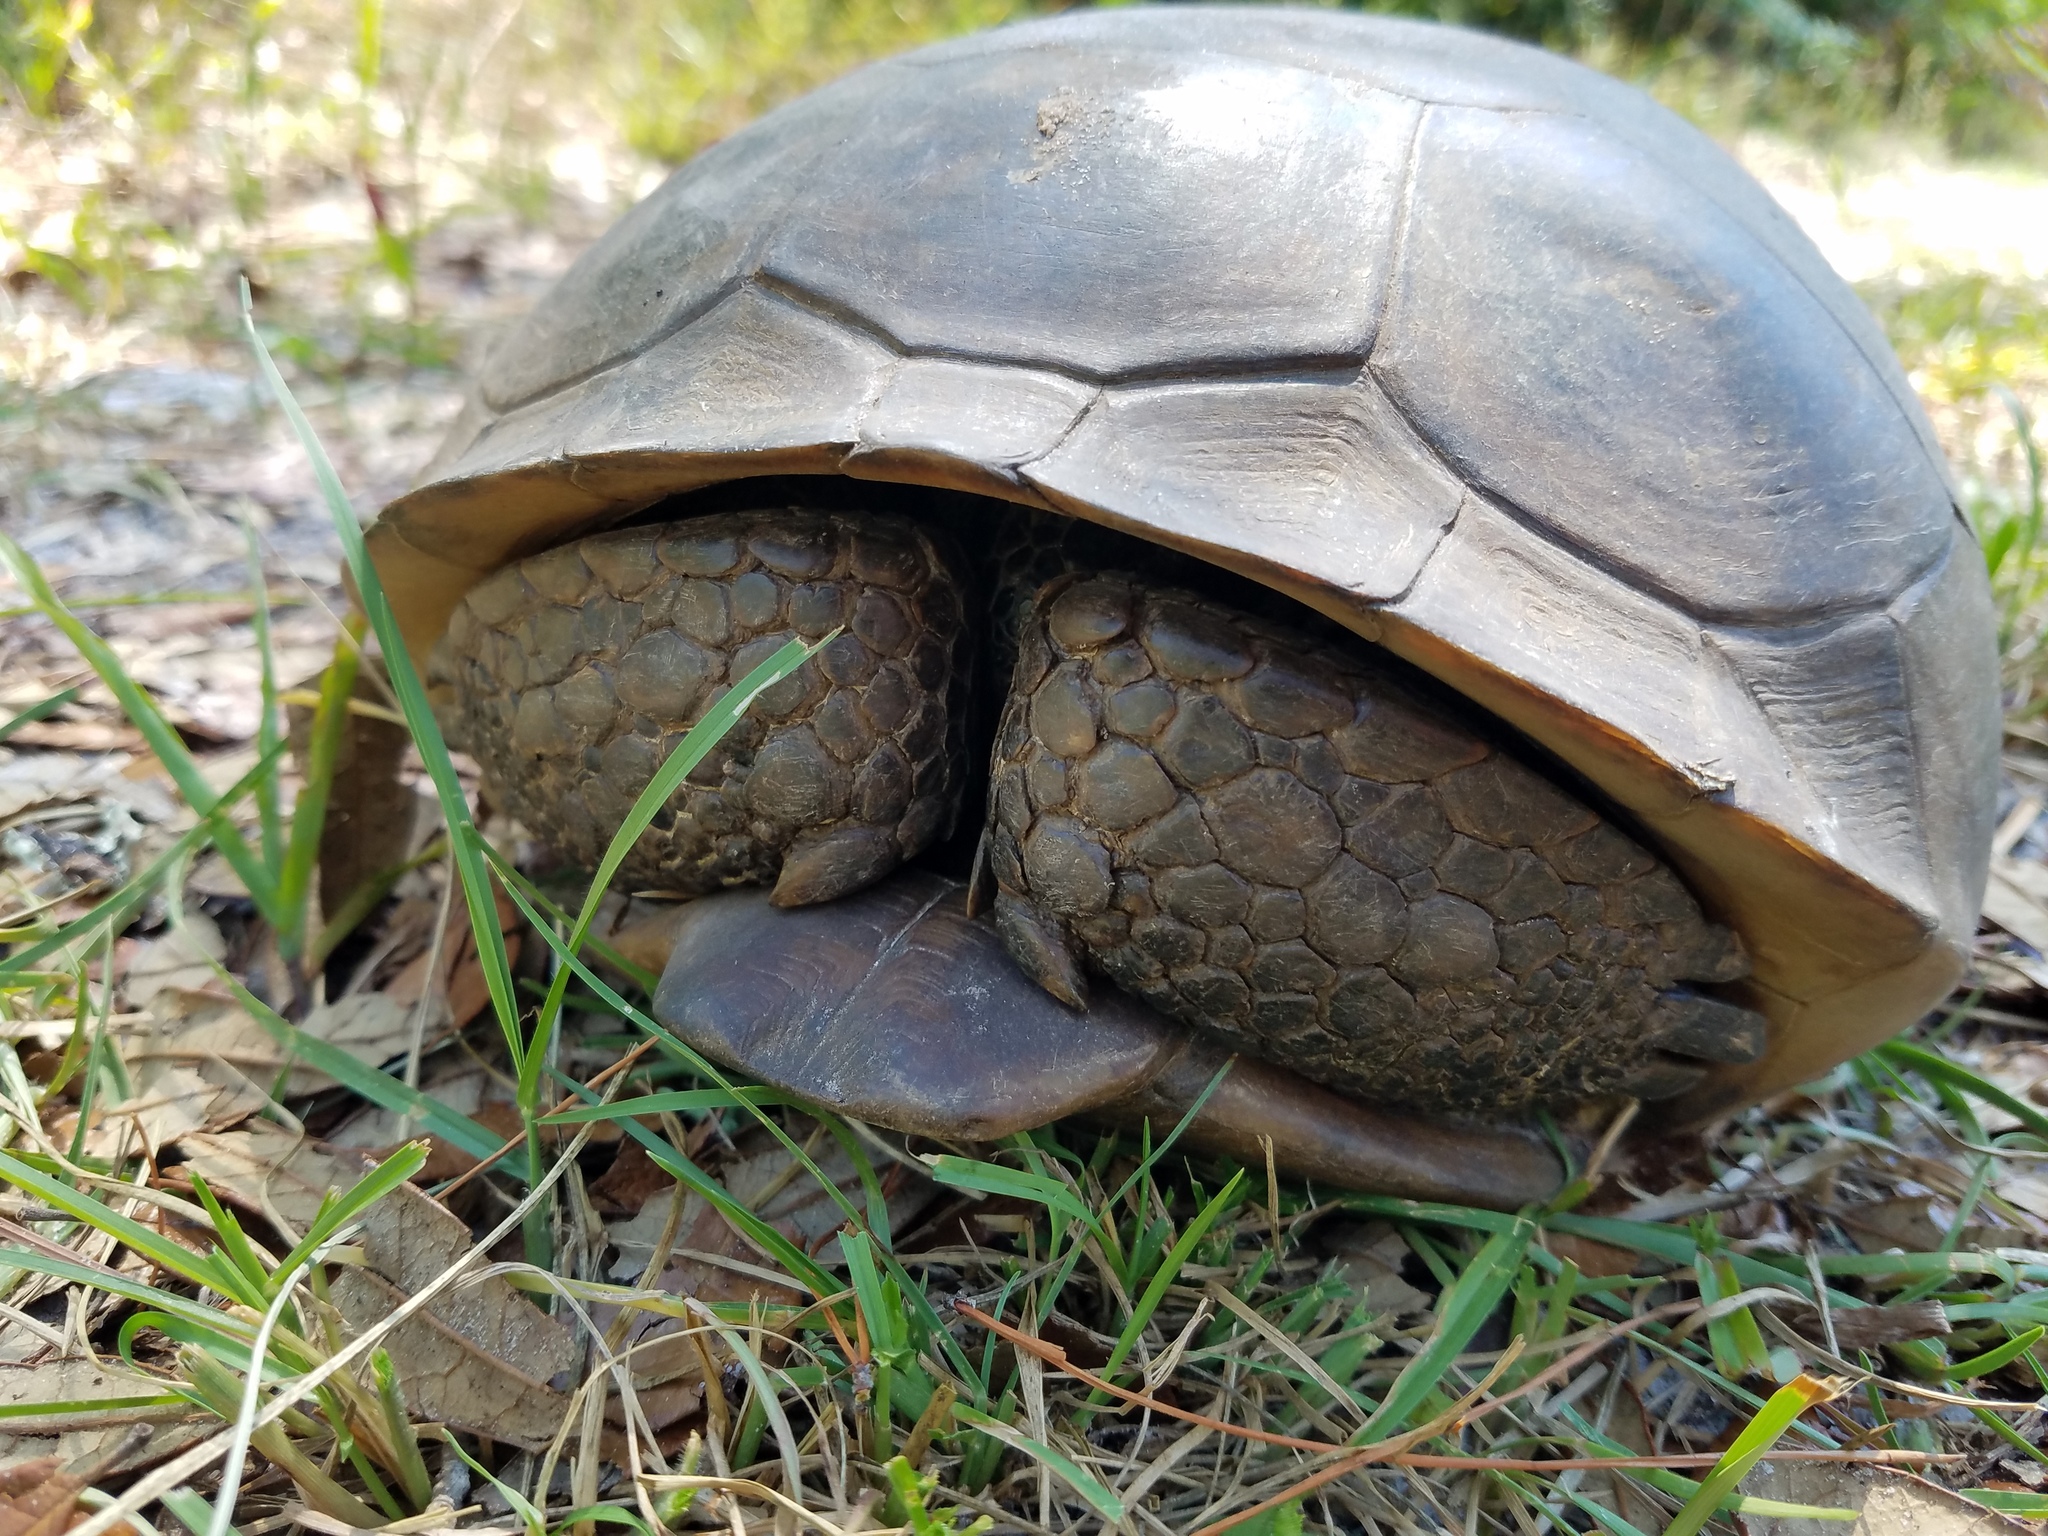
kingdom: Animalia
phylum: Chordata
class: Testudines
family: Testudinidae
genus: Gopherus
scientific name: Gopherus polyphemus
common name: Florida gopher tortoise
